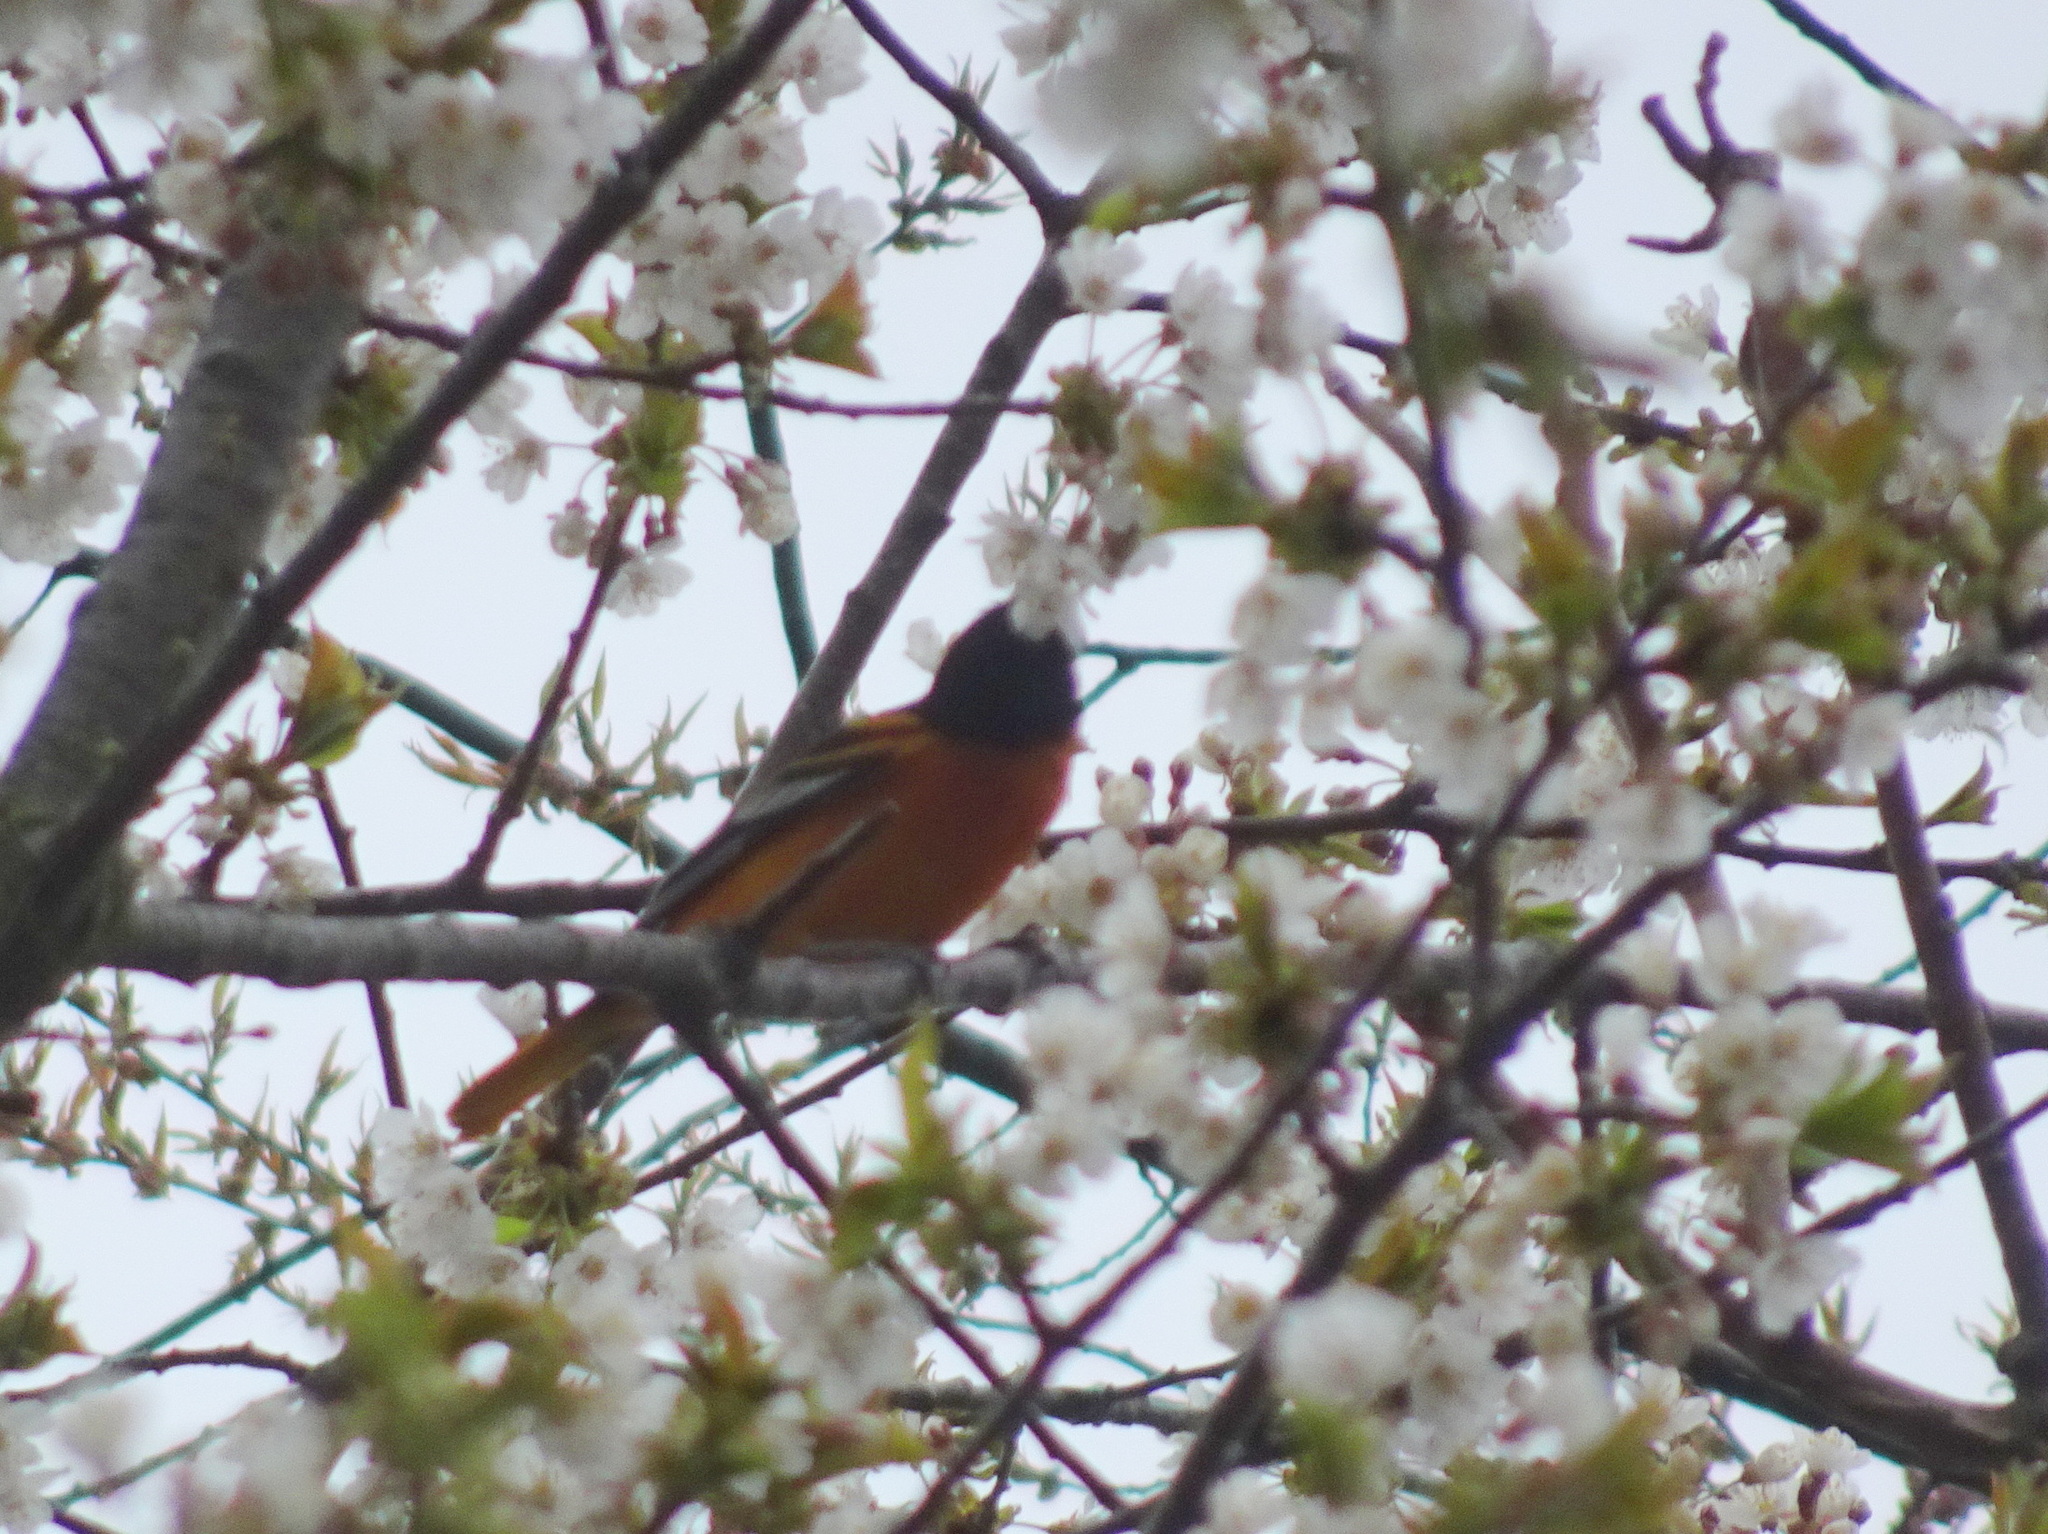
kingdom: Animalia
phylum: Chordata
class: Aves
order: Passeriformes
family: Icteridae
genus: Icterus
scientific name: Icterus galbula
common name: Baltimore oriole
